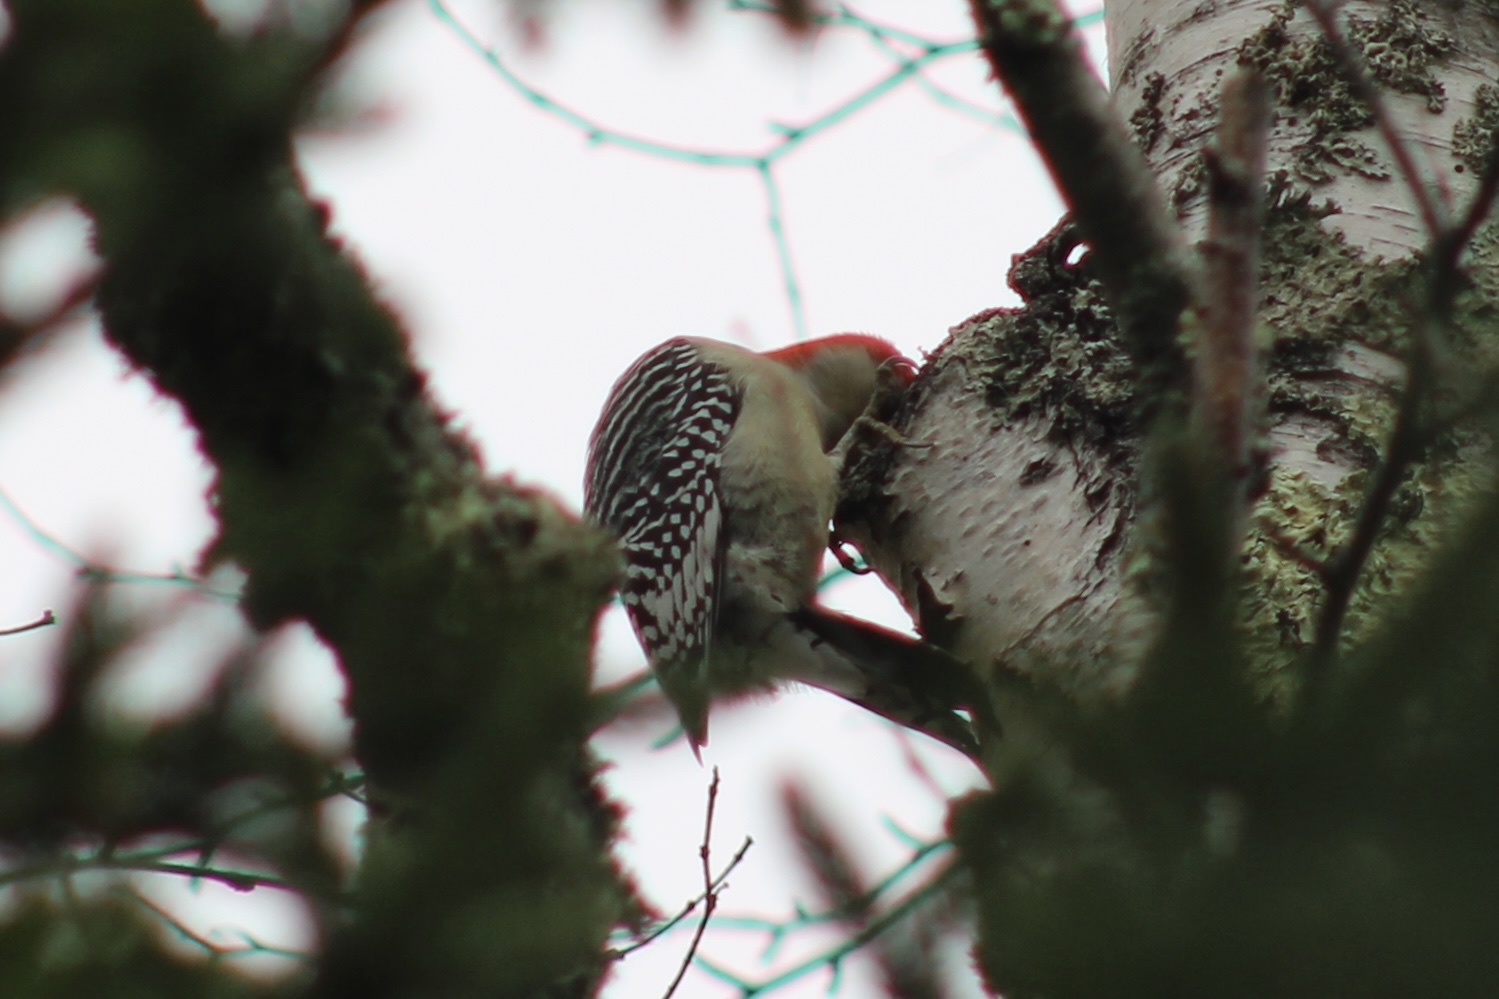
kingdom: Animalia
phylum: Chordata
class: Aves
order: Piciformes
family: Picidae
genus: Melanerpes
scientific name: Melanerpes carolinus
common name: Red-bellied woodpecker
